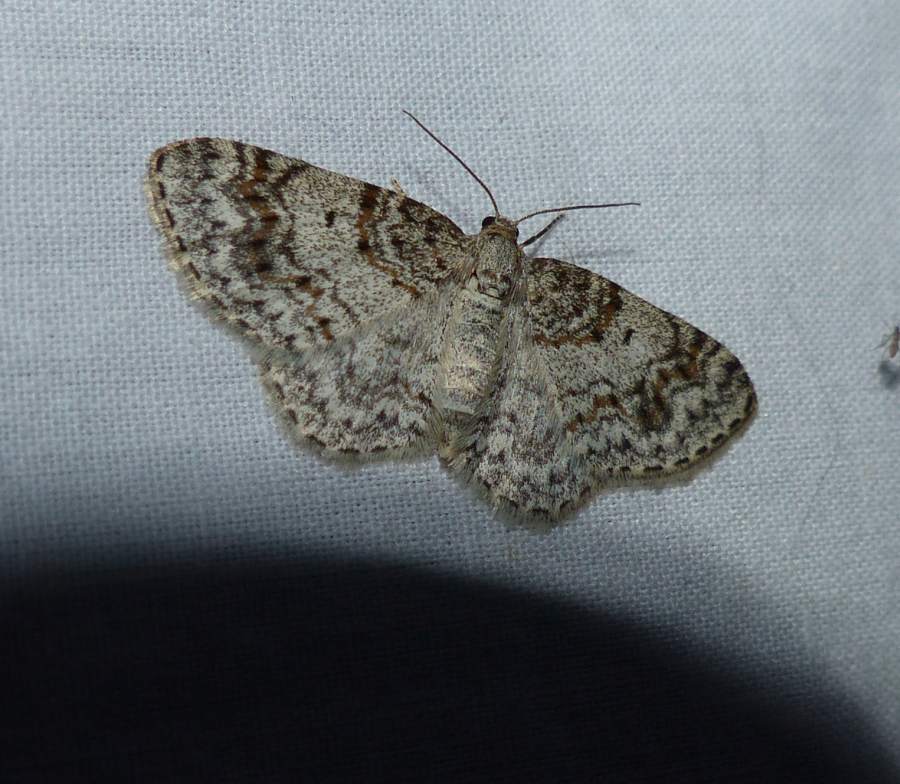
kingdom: Animalia
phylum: Arthropoda
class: Insecta
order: Lepidoptera
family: Geometridae
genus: Hydrelia
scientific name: Hydrelia inornata
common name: Unadorned carpet moth
